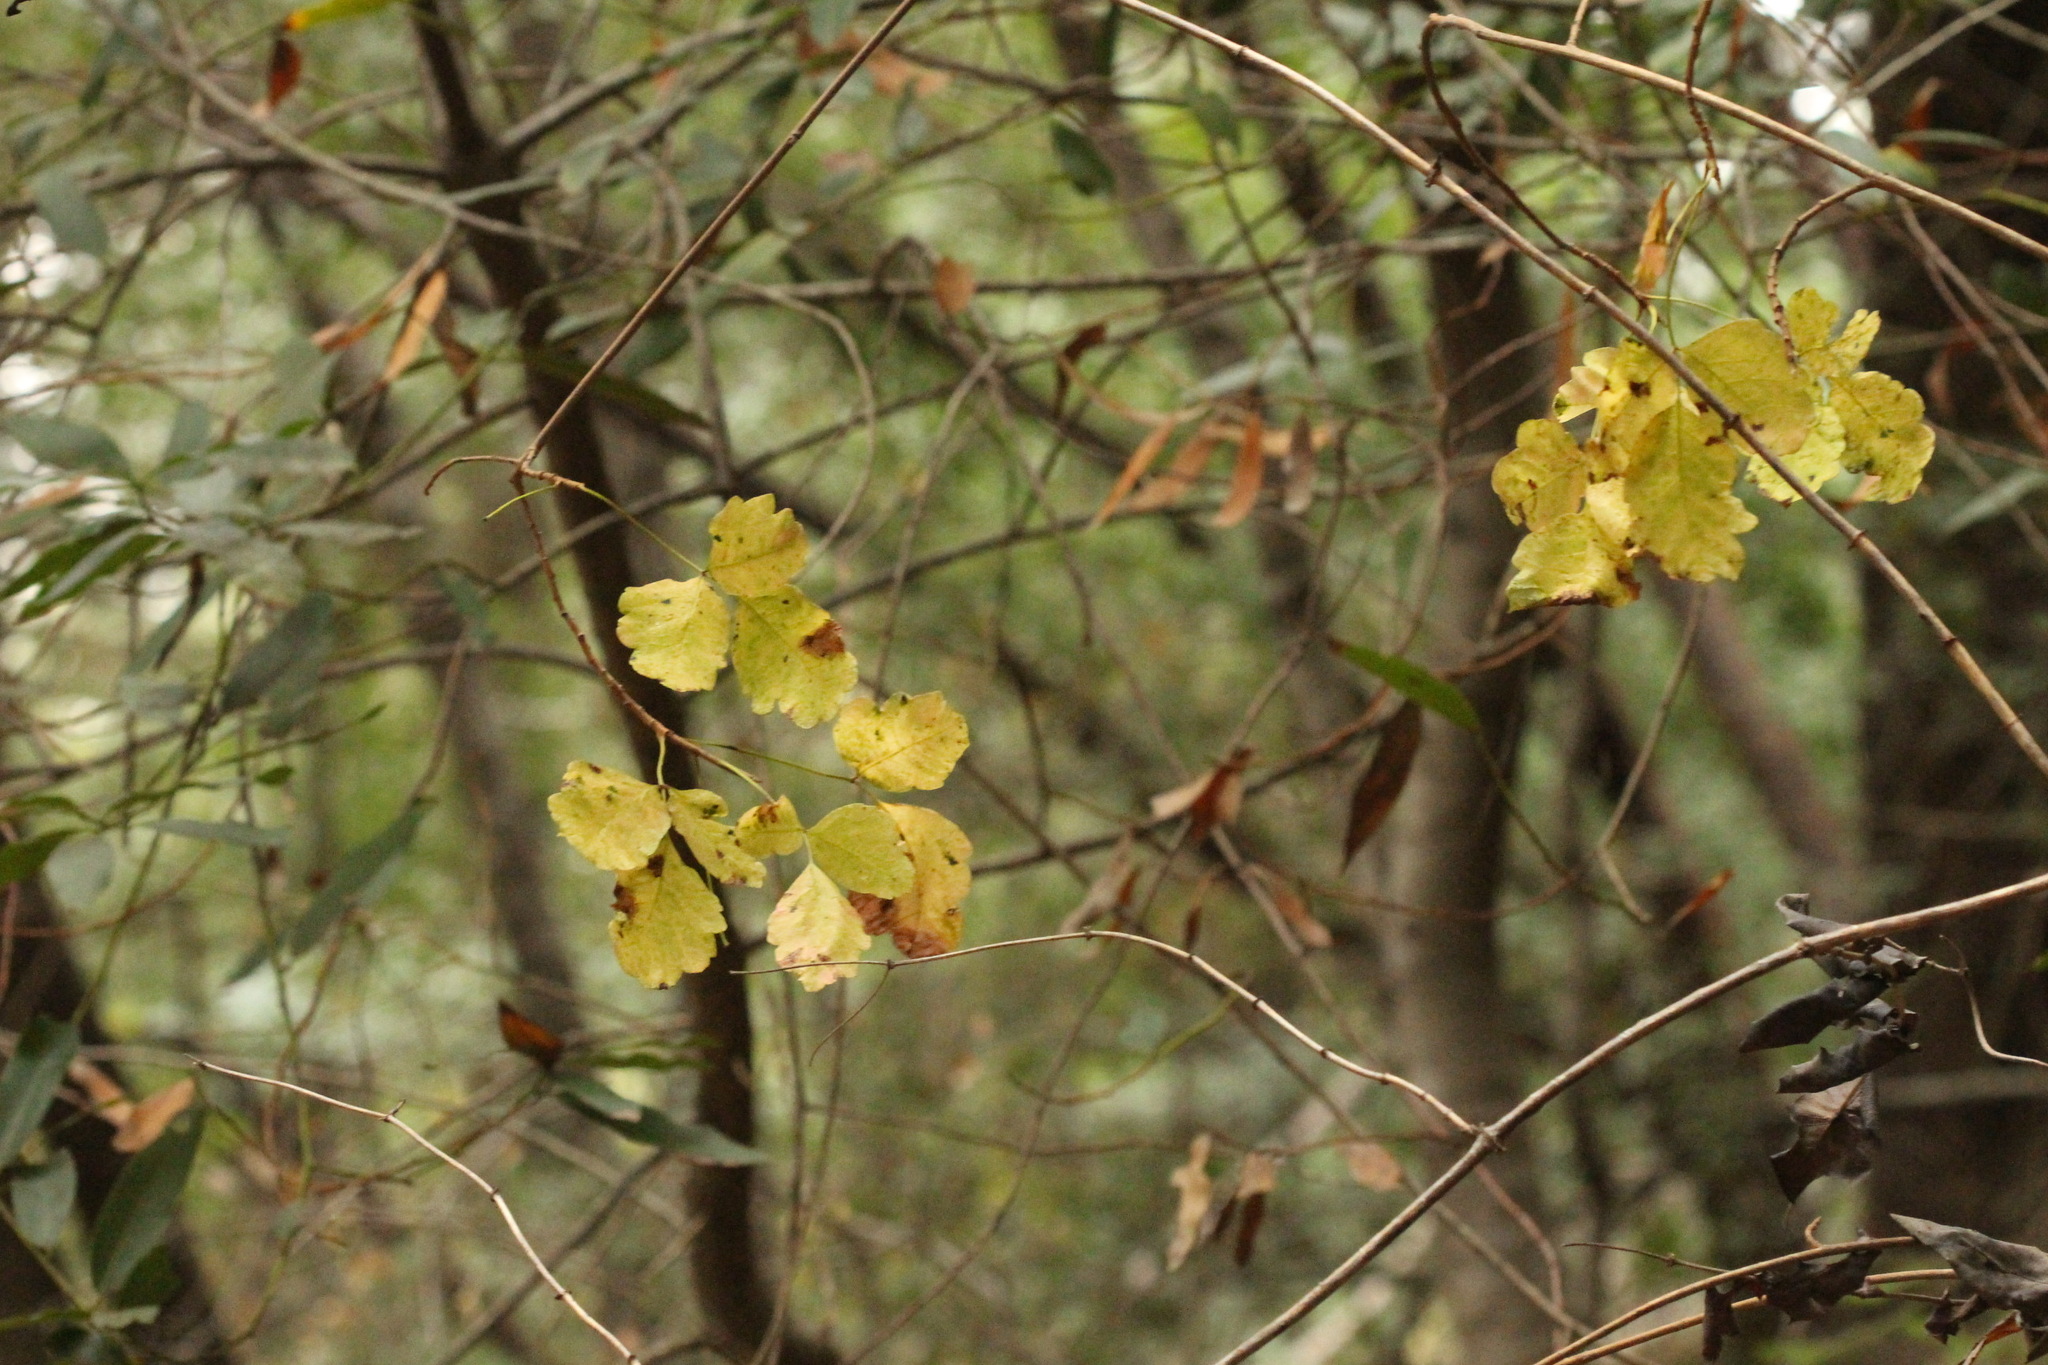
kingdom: Plantae
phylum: Tracheophyta
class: Magnoliopsida
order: Sapindales
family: Anacardiaceae
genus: Toxicodendron
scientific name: Toxicodendron diversilobum
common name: Pacific poison-oak
